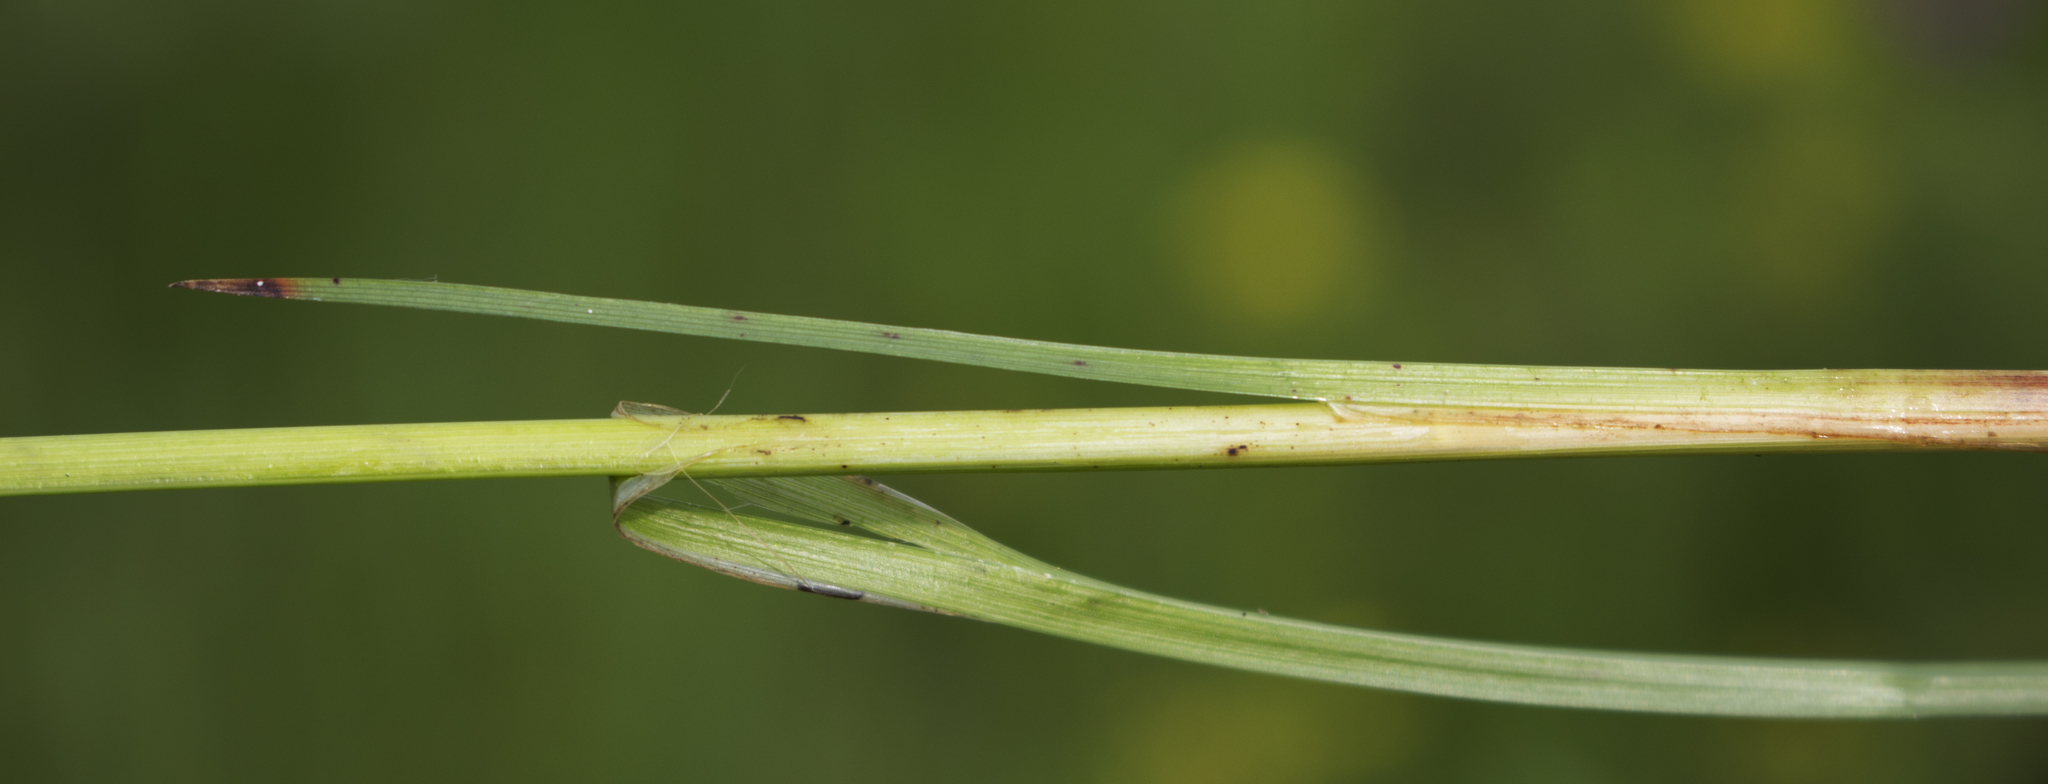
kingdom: Plantae
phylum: Tracheophyta
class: Liliopsida
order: Poales
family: Cyperaceae
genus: Carex
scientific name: Carex hystericina
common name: Bottlebrush sedge
